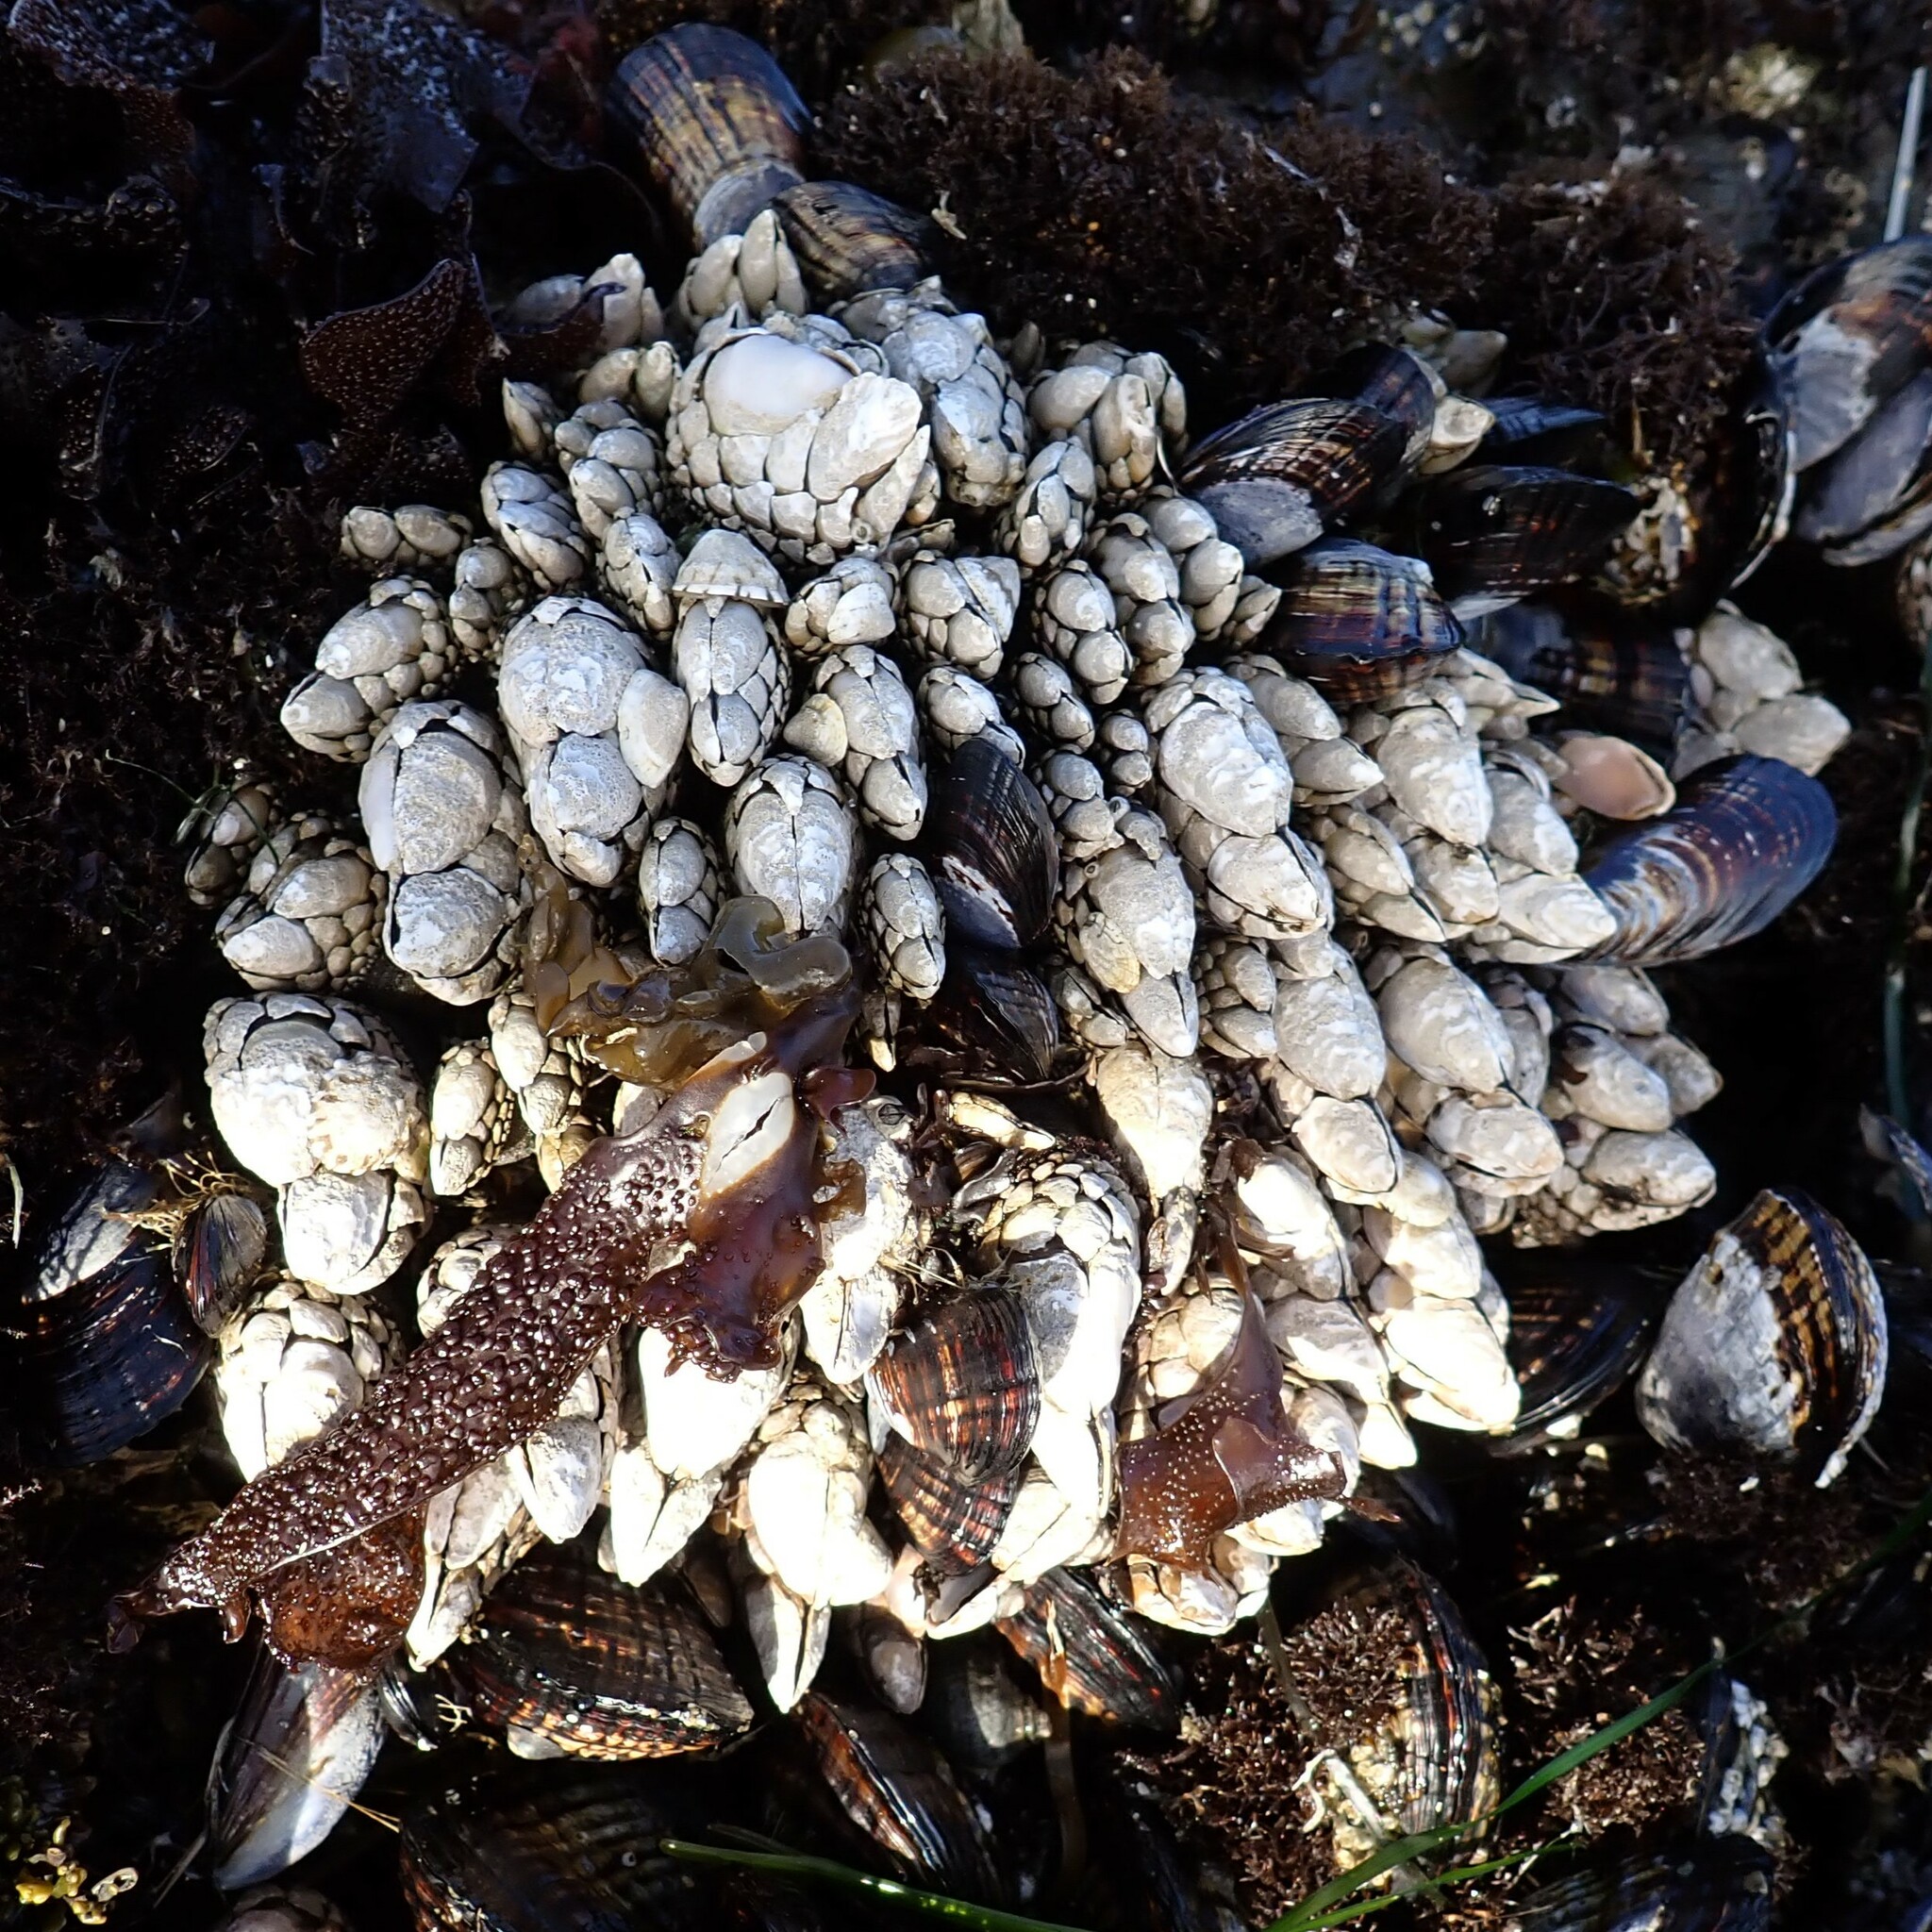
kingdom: Animalia
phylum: Arthropoda
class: Maxillopoda
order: Pedunculata
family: Pollicipedidae
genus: Pollicipes
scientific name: Pollicipes polymerus
